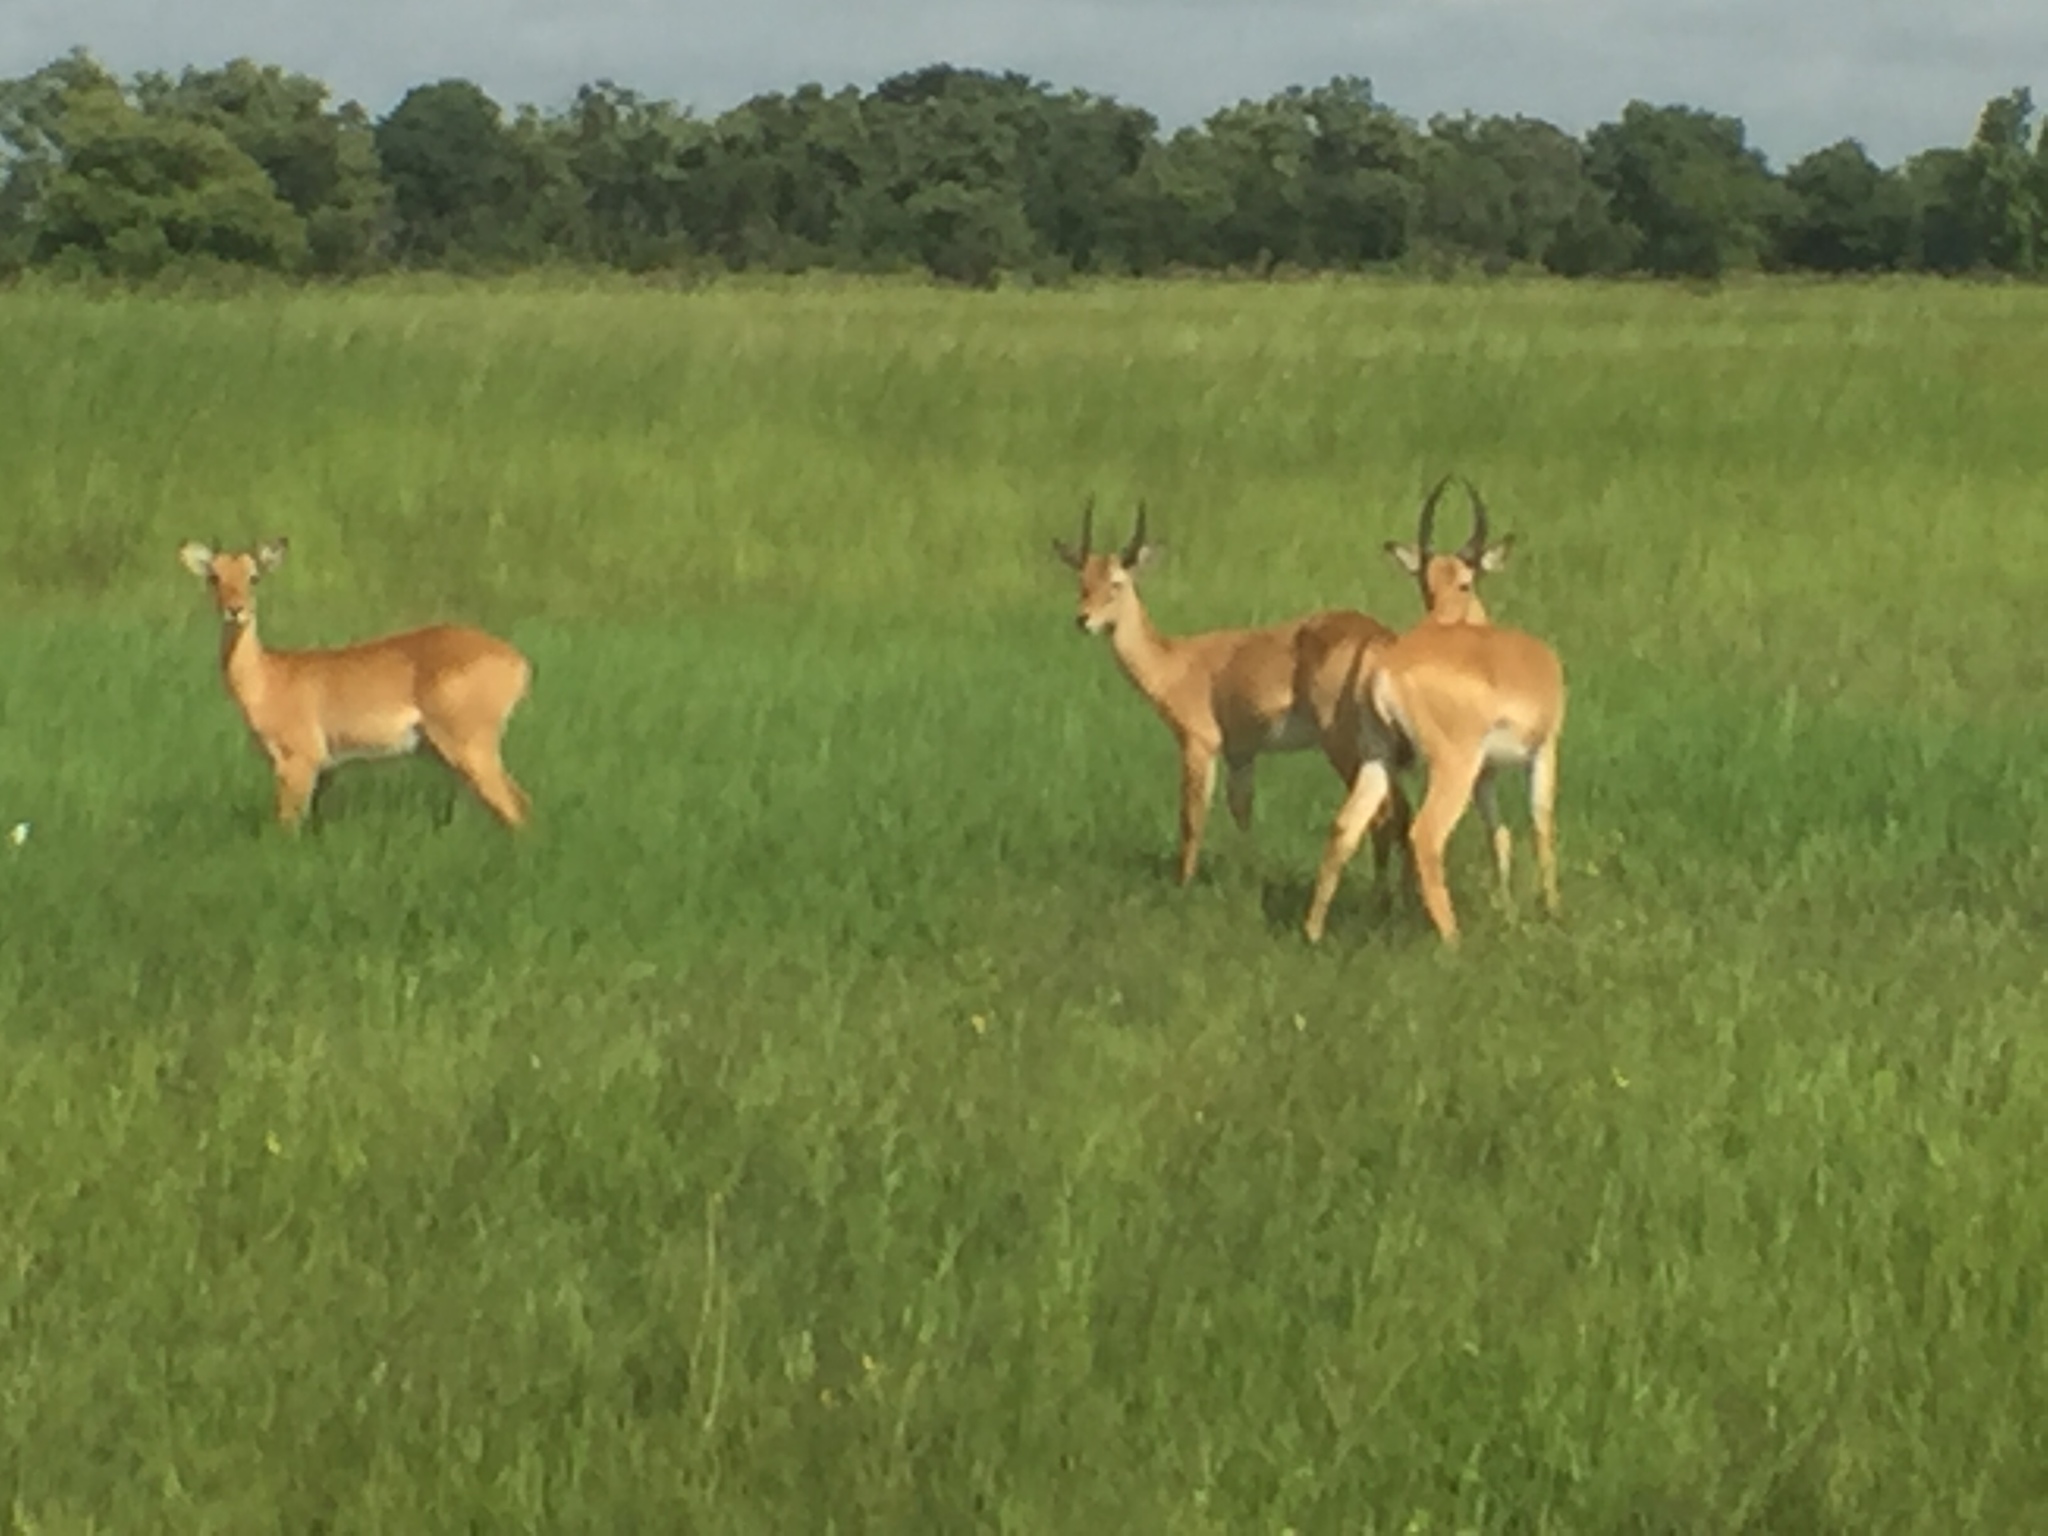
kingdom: Animalia
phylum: Chordata
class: Mammalia
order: Artiodactyla
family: Bovidae
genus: Kobus
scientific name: Kobus kob
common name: Kob
